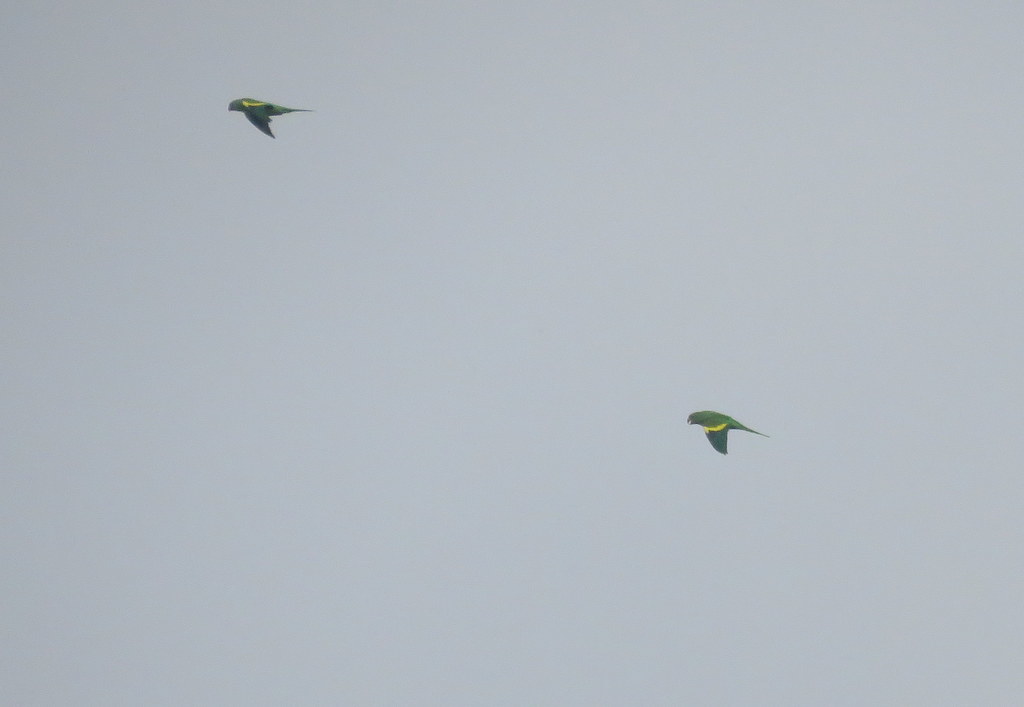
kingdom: Animalia
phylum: Chordata
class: Aves
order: Psittaciformes
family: Psittacidae
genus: Brotogeris
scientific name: Brotogeris chiriri
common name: Yellow-chevroned parakeet
